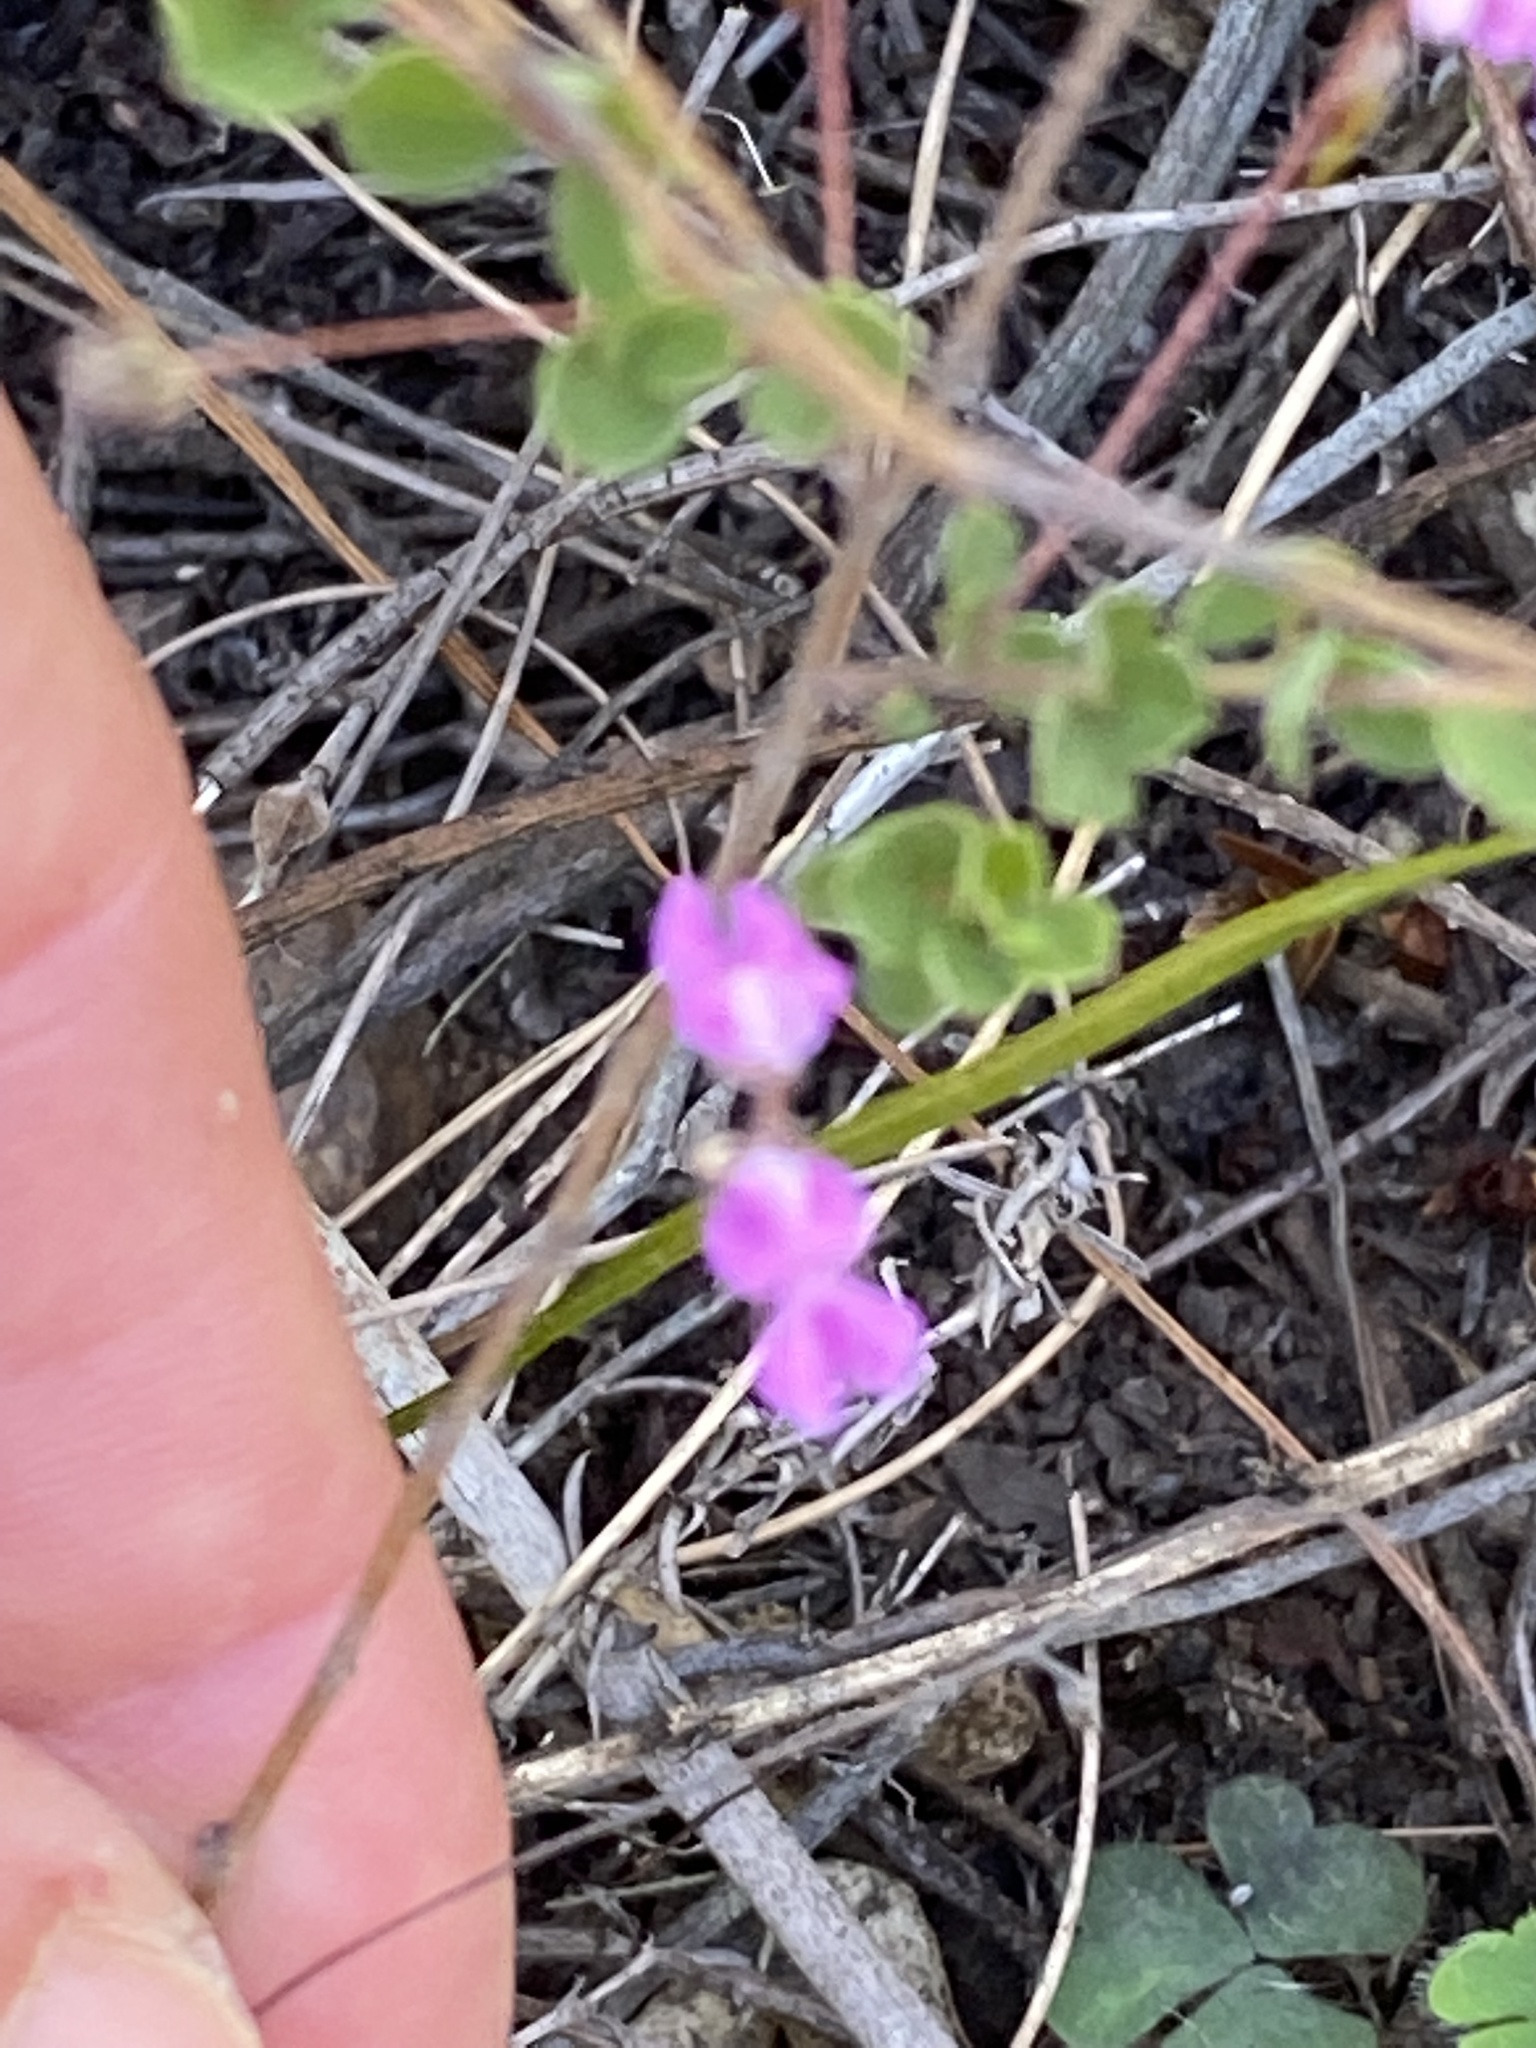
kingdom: Plantae
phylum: Tracheophyta
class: Magnoliopsida
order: Fabales
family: Fabaceae
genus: Indigofera
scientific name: Indigofera alopecuroides
